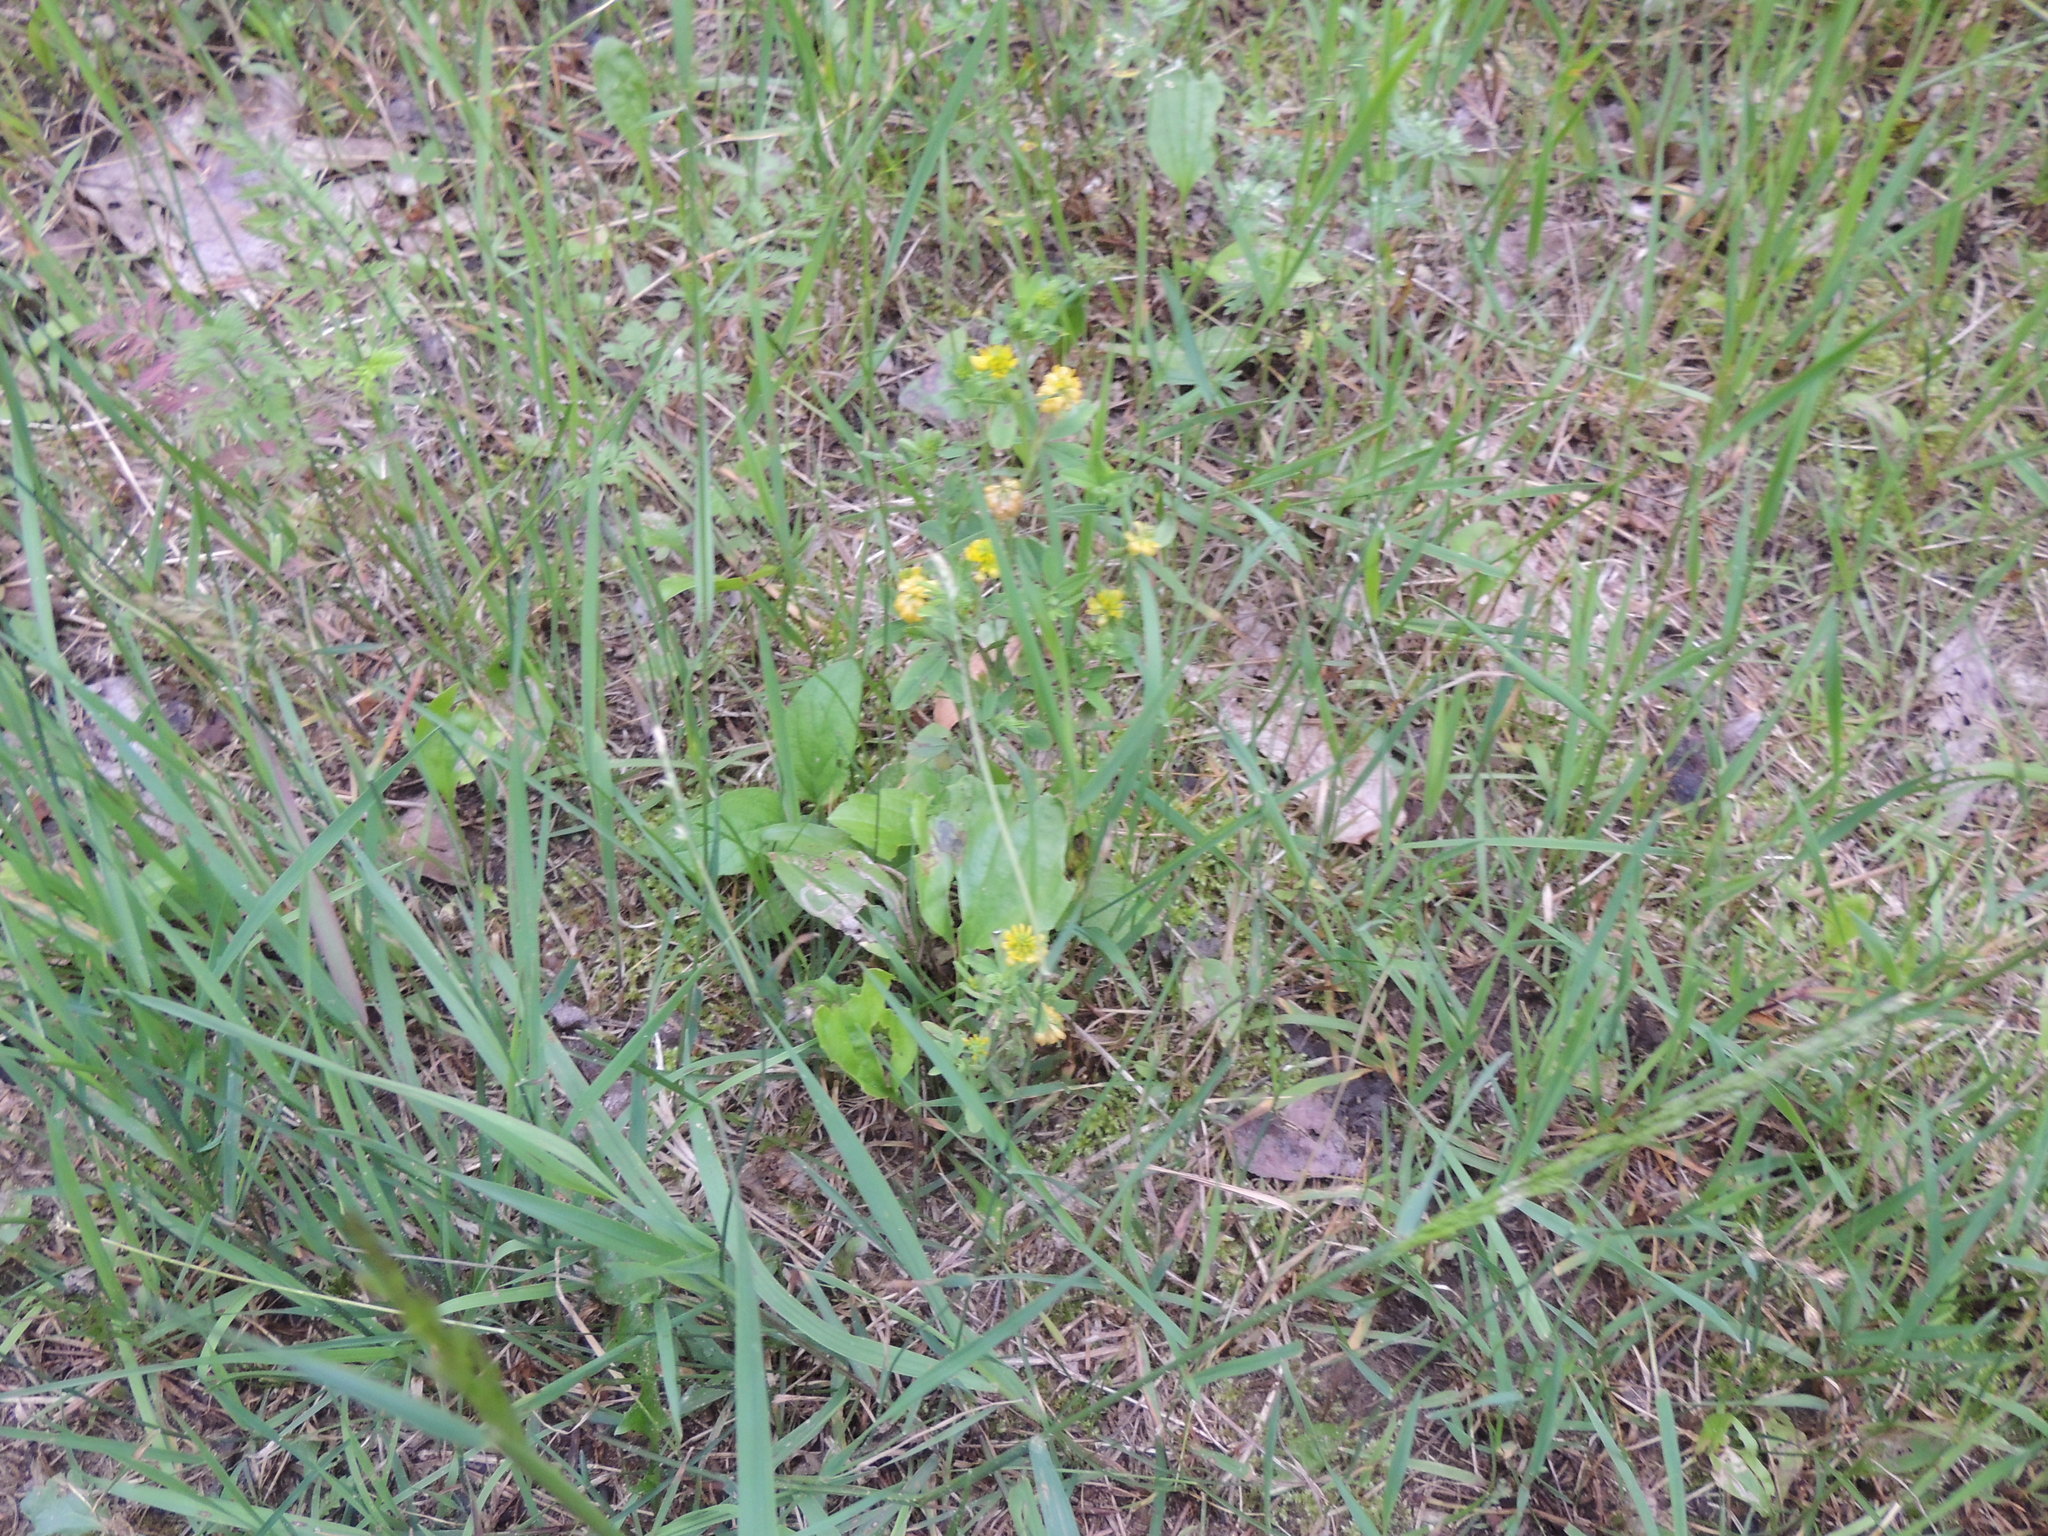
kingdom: Plantae
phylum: Tracheophyta
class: Magnoliopsida
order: Fabales
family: Fabaceae
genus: Trifolium
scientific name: Trifolium aureum
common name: Golden clover
